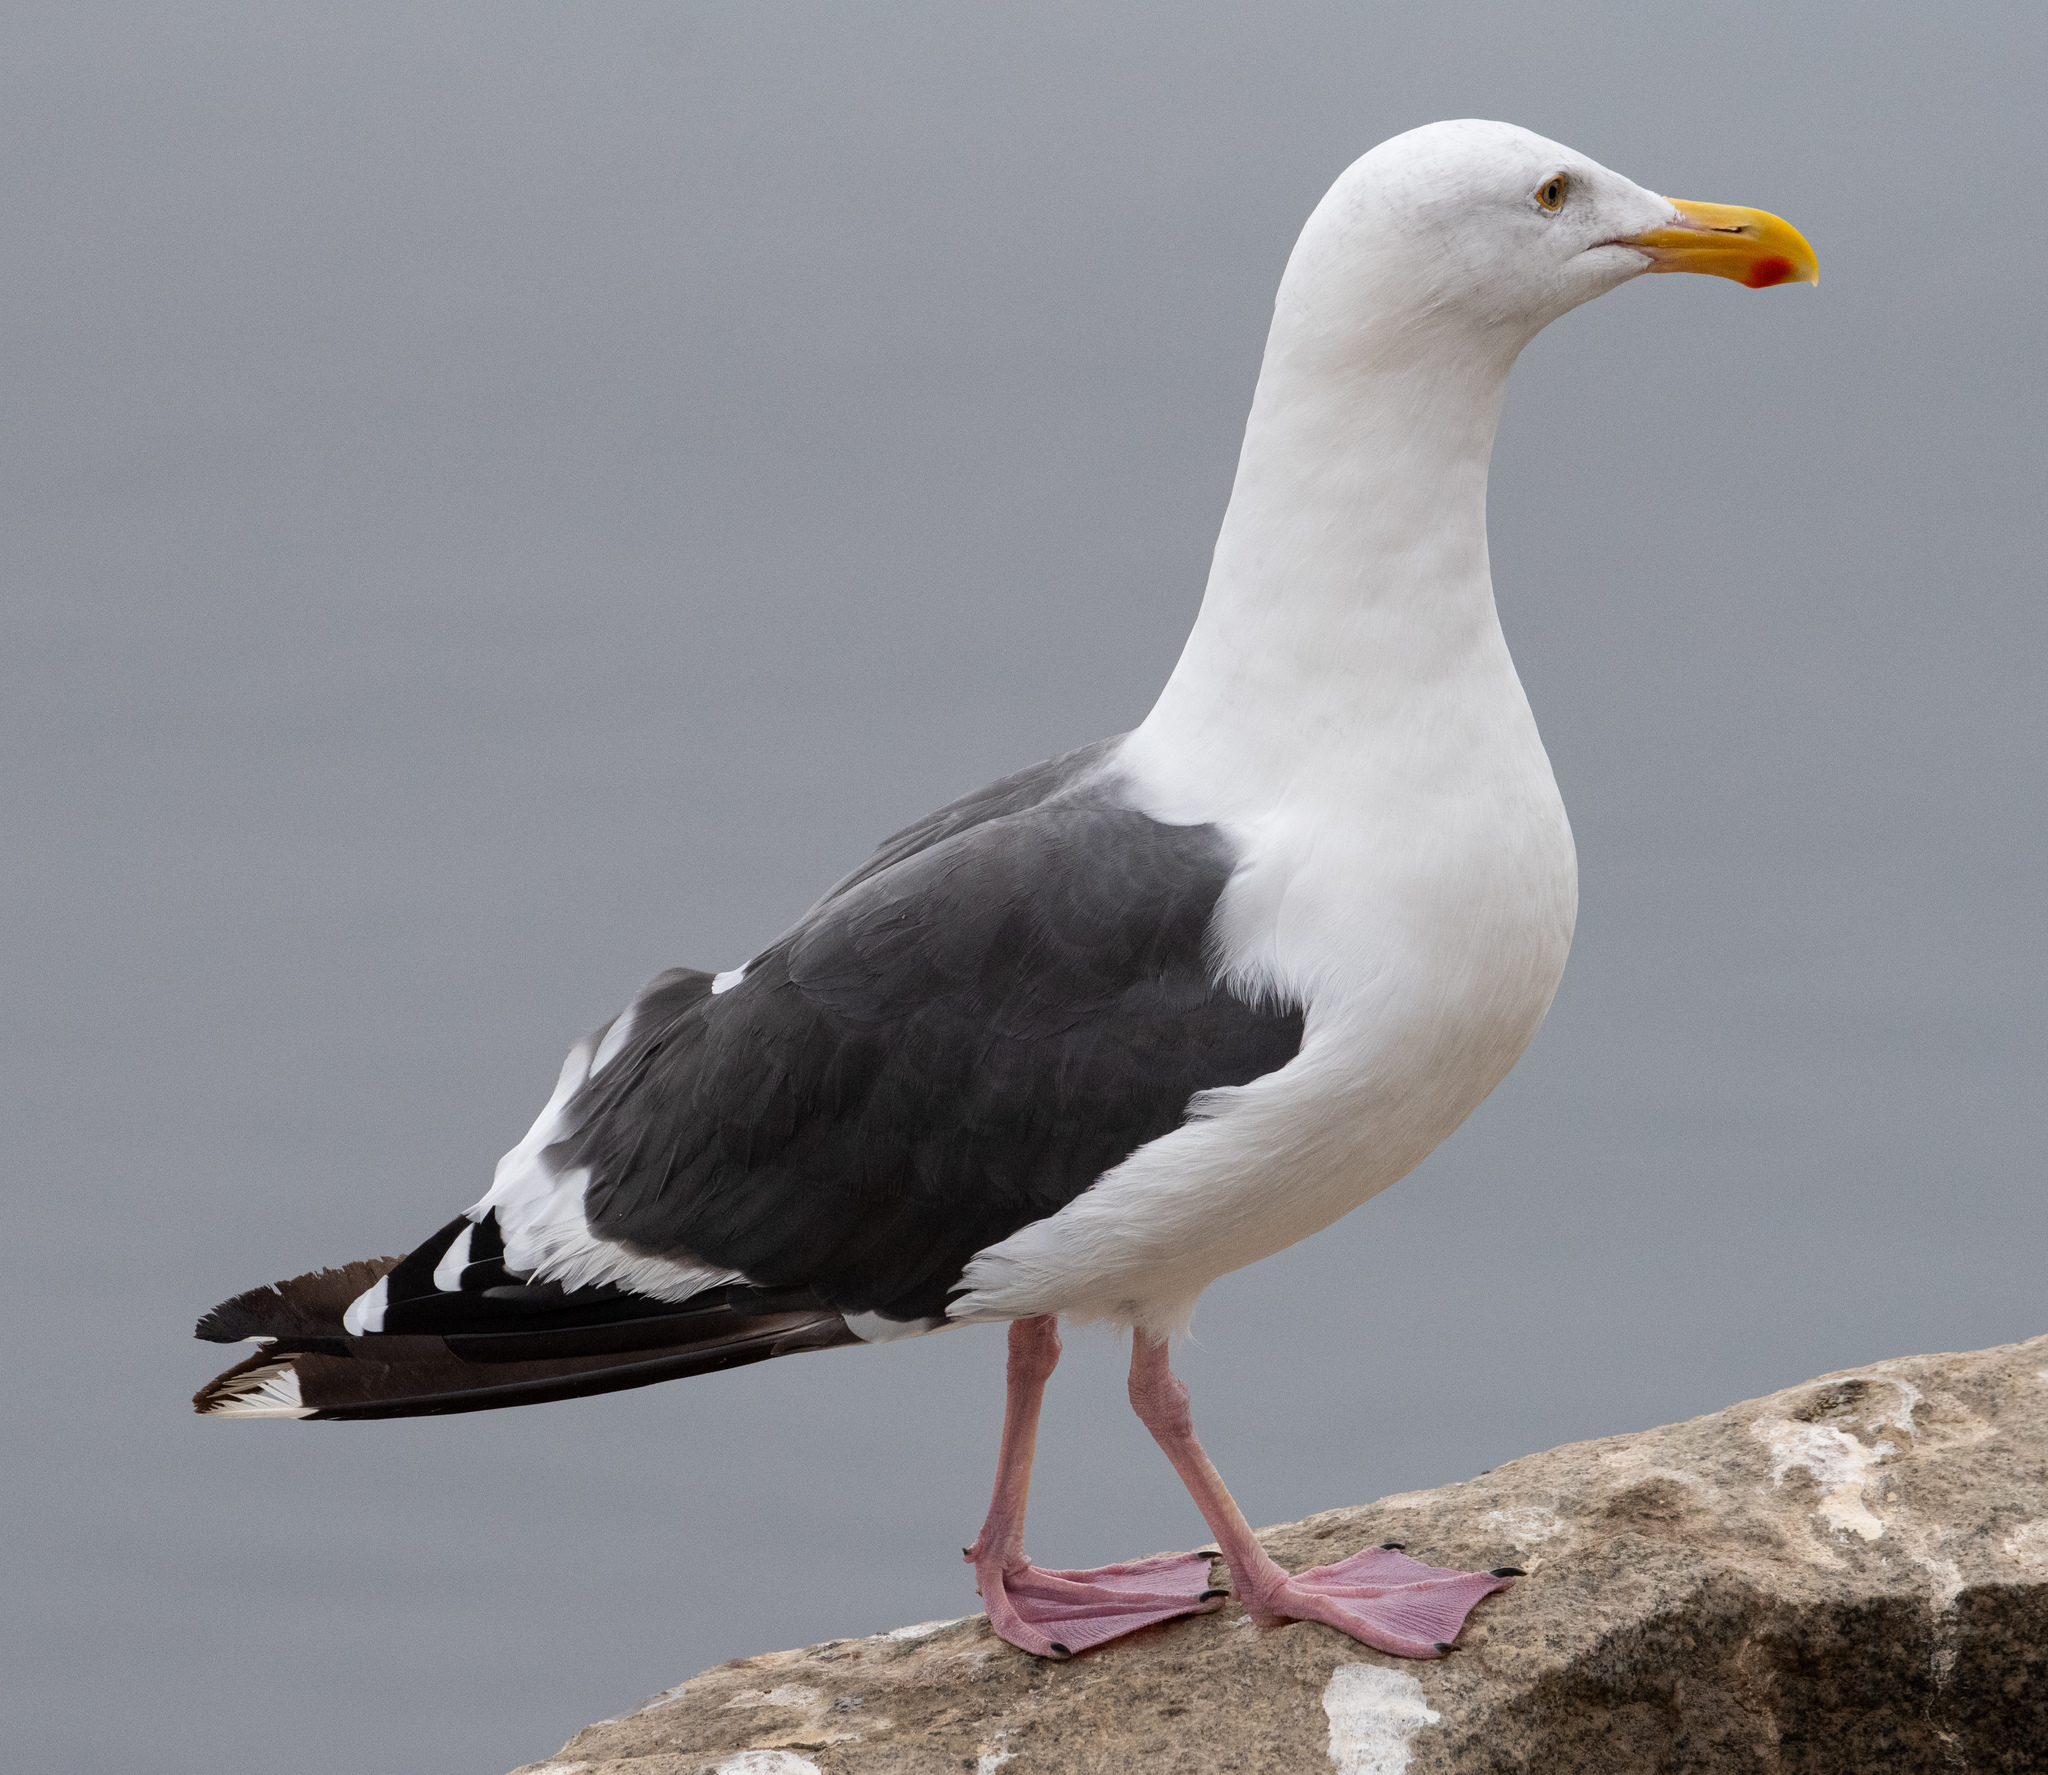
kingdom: Animalia
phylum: Chordata
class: Aves
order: Charadriiformes
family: Laridae
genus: Larus
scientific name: Larus occidentalis
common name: Western gull
